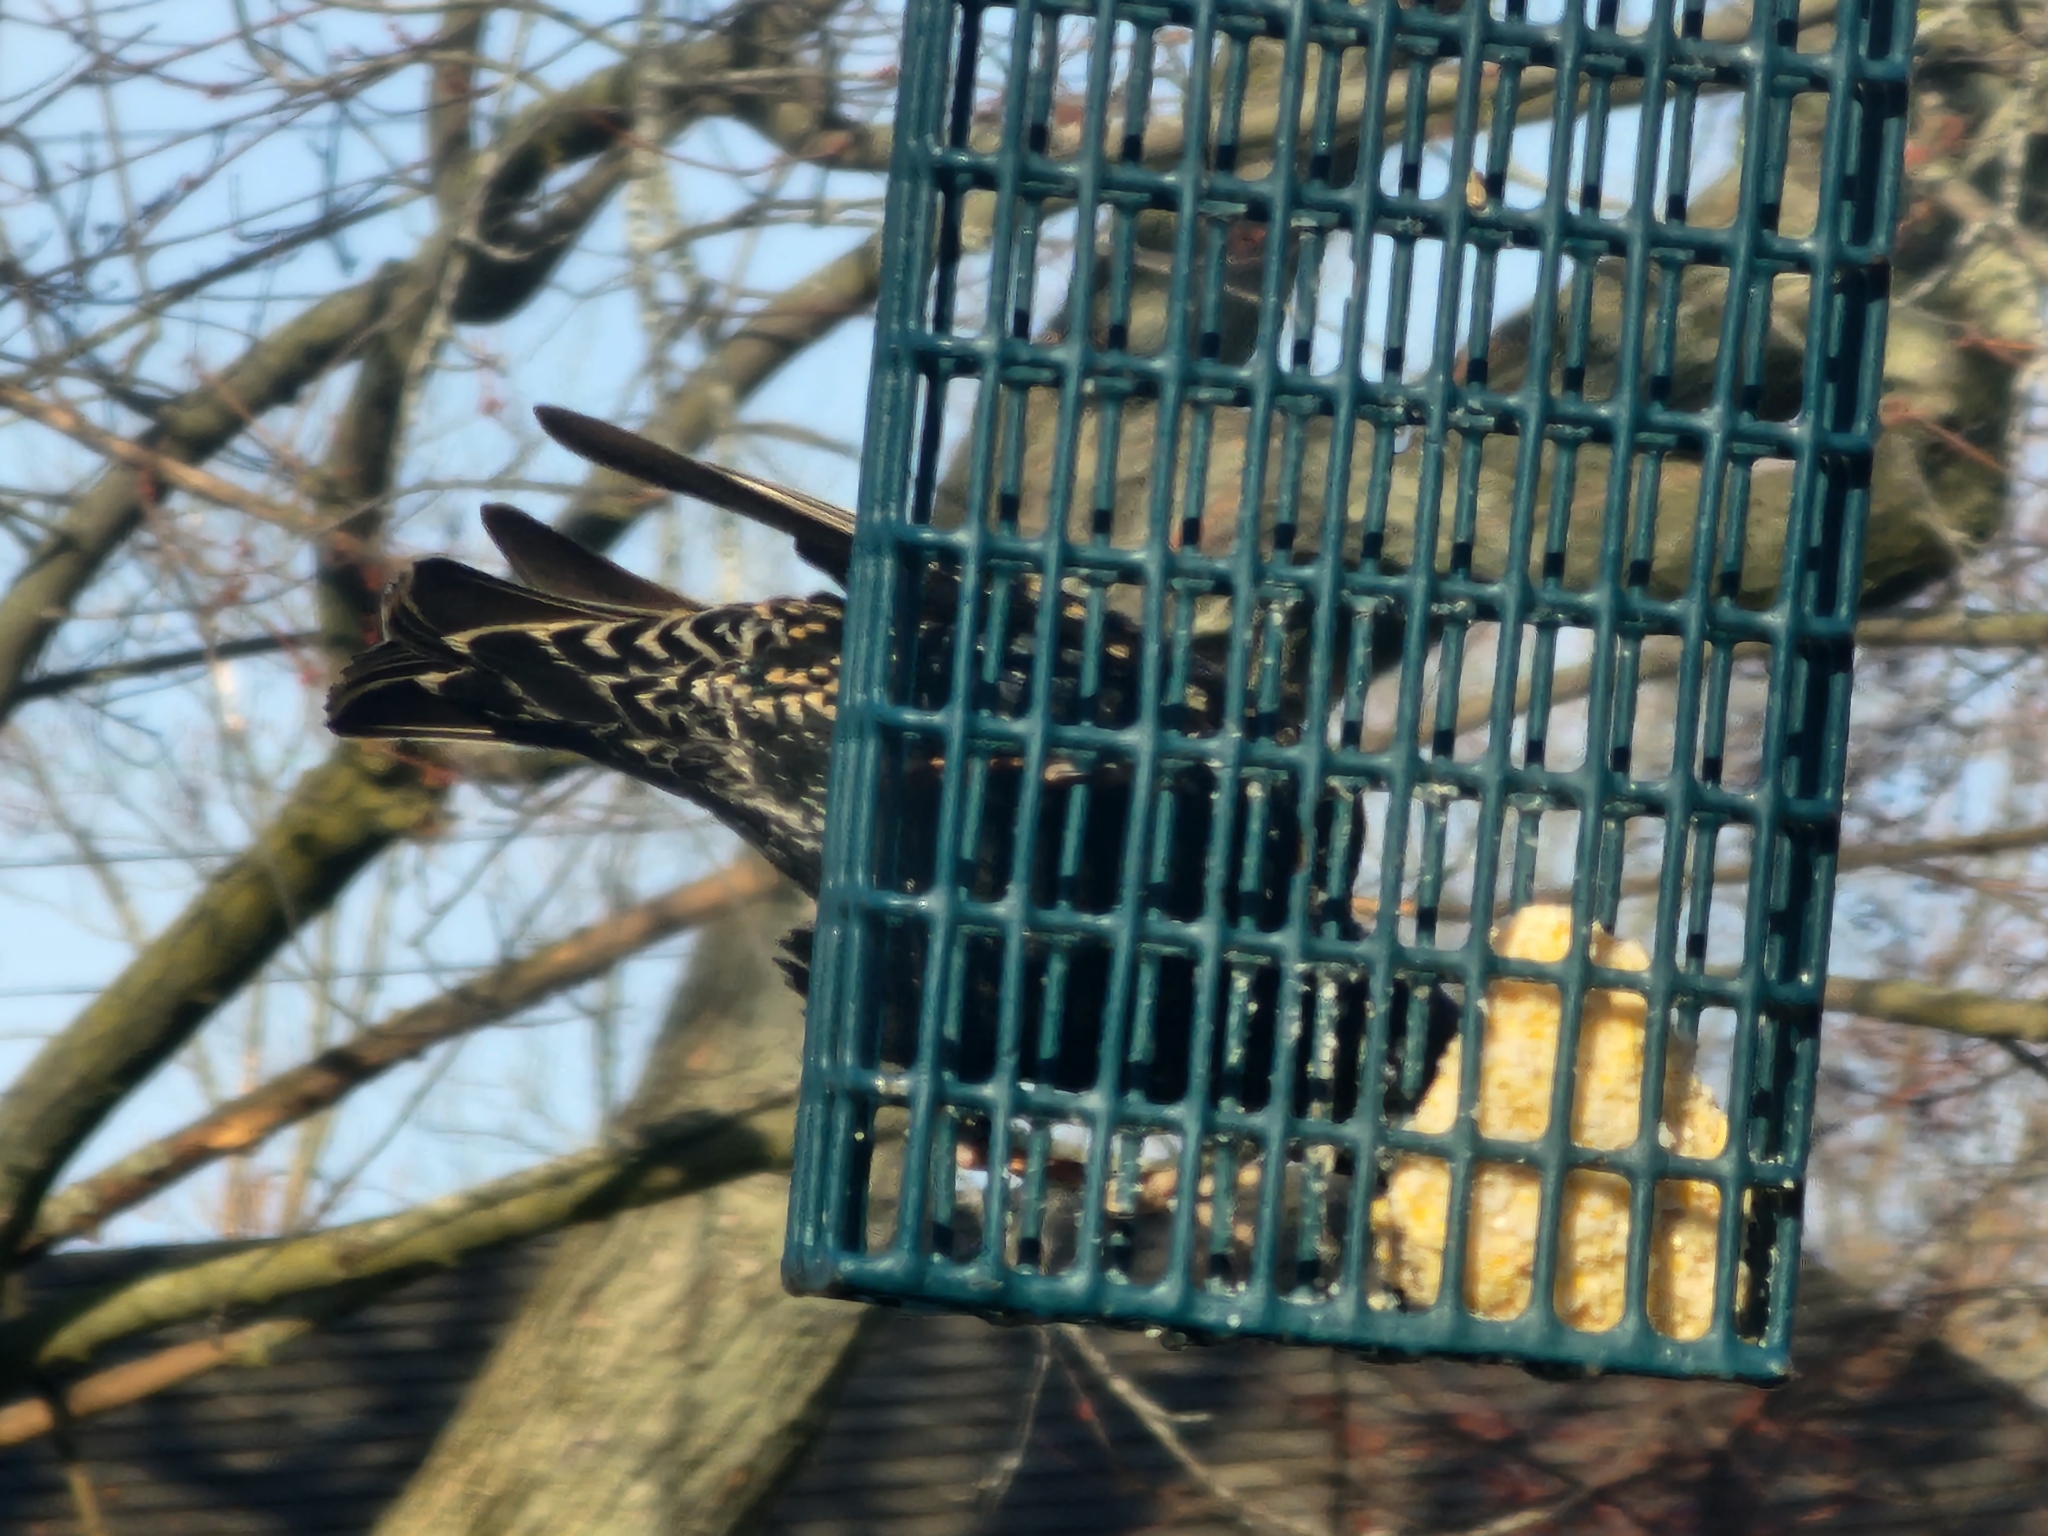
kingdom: Animalia
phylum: Chordata
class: Aves
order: Passeriformes
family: Sturnidae
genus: Sturnus
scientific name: Sturnus vulgaris
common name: Common starling
